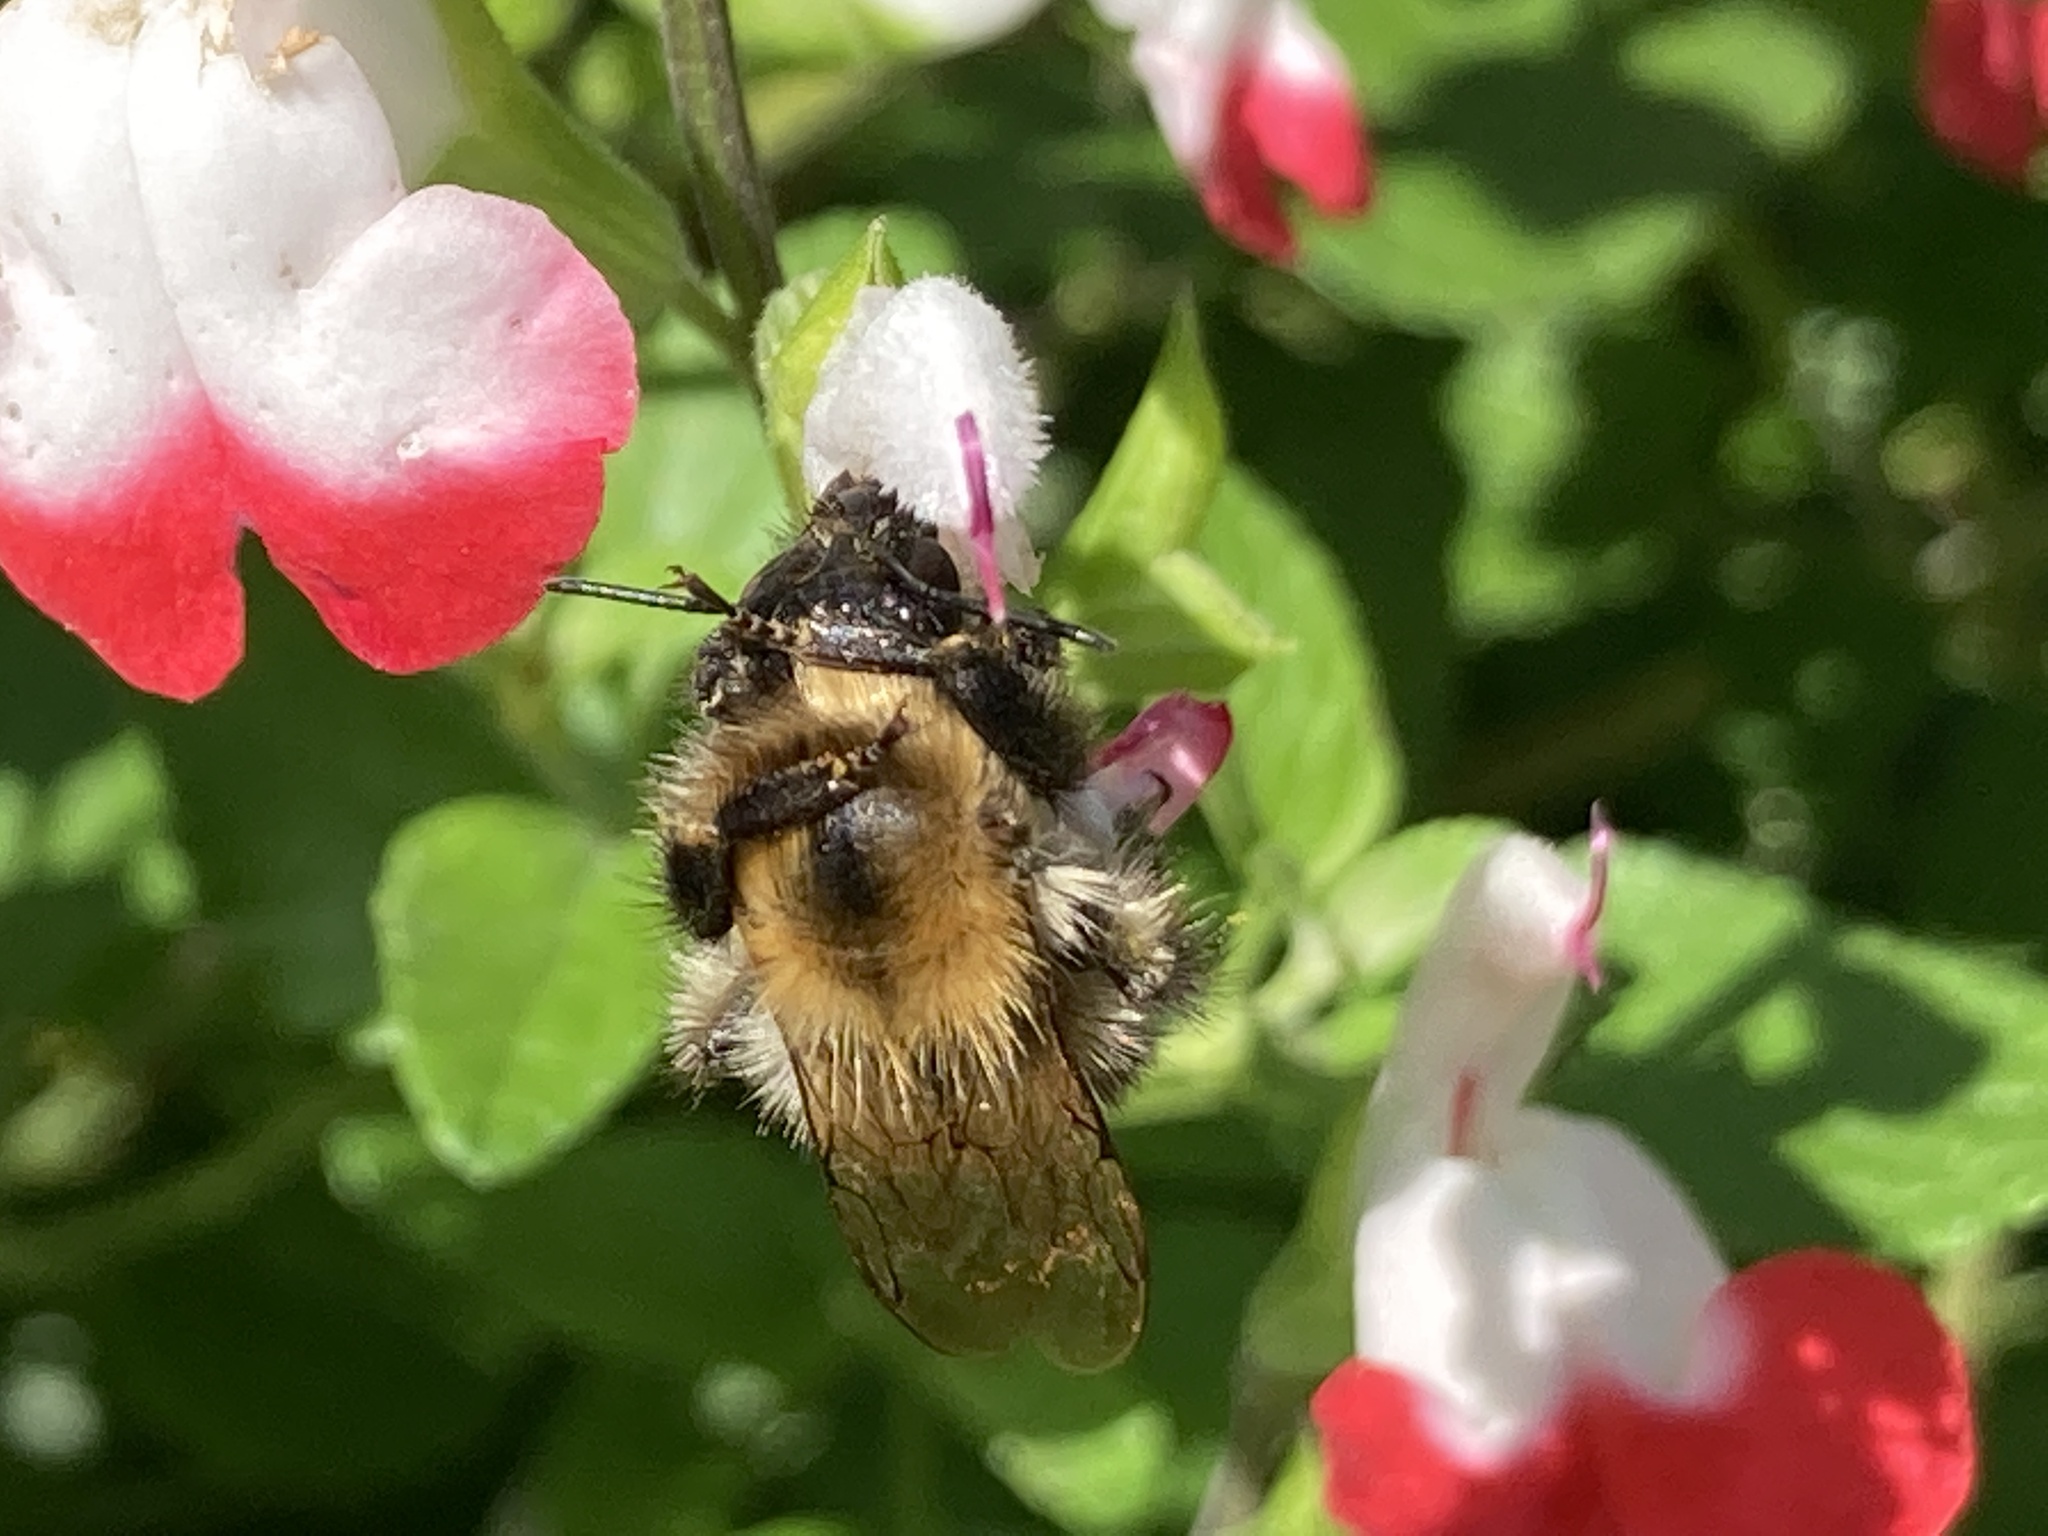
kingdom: Animalia
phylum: Arthropoda
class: Insecta
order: Hymenoptera
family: Apidae
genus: Bombus
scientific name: Bombus pascuorum
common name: Common carder bee
